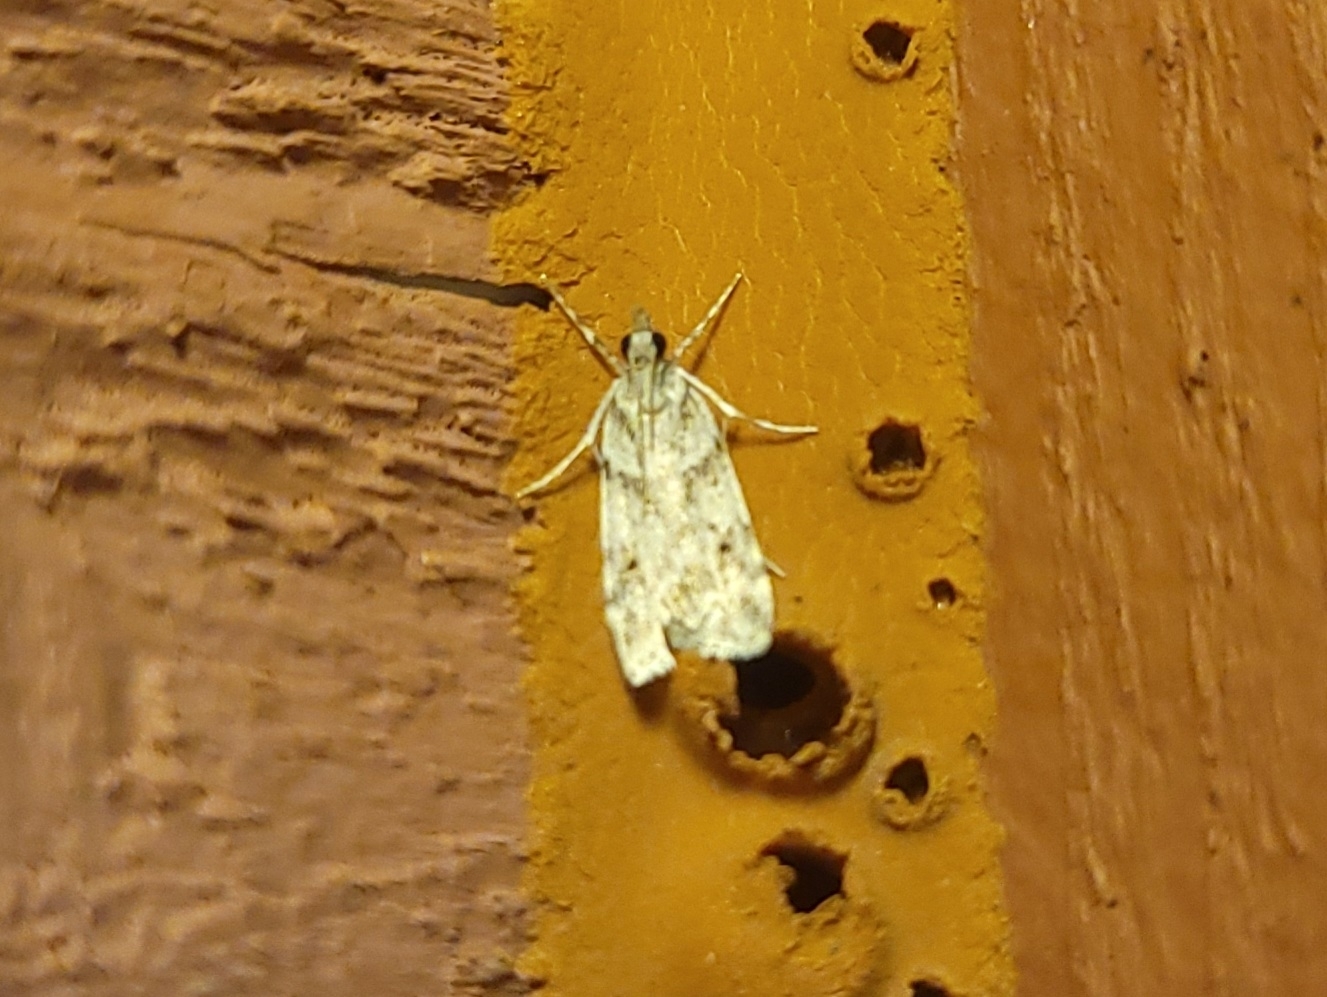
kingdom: Animalia
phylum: Arthropoda
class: Insecta
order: Lepidoptera
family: Crambidae
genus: Scoparia
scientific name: Scoparia biplagialis
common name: Double-striped scoparia moth
